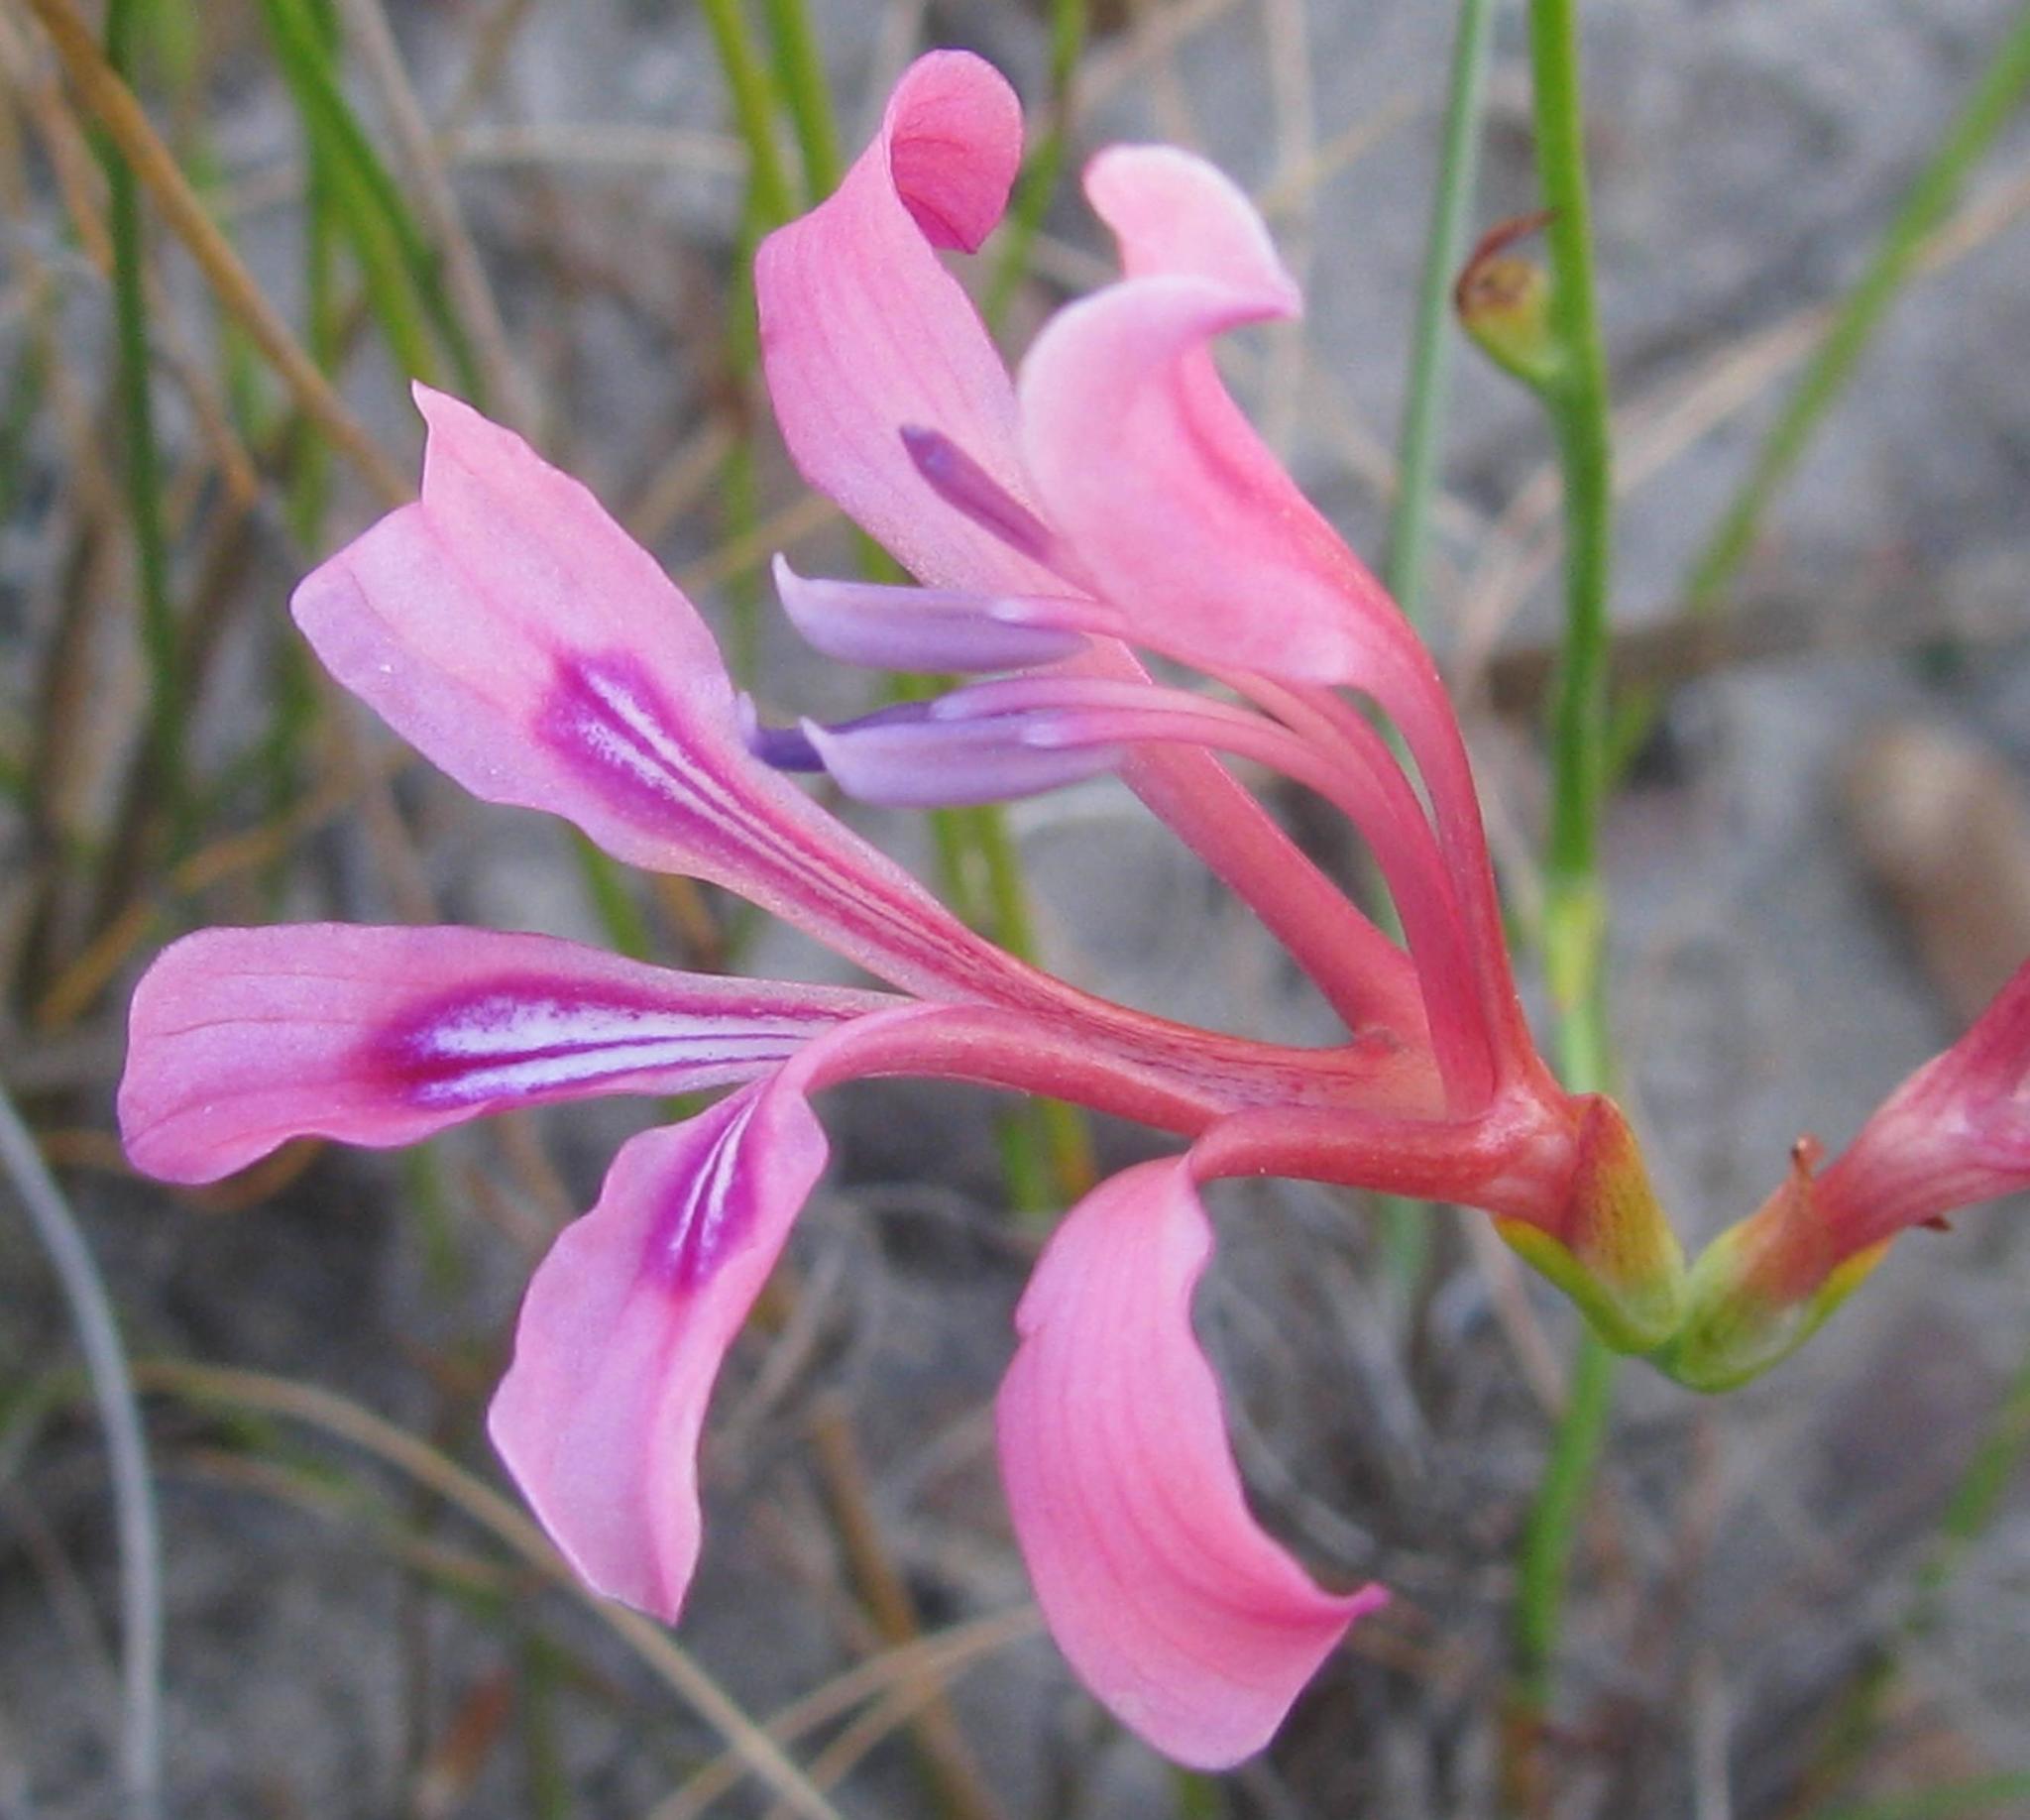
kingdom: Plantae
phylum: Tracheophyta
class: Liliopsida
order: Asparagales
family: Iridaceae
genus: Tritoniopsis
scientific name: Tritoniopsis ramosa
